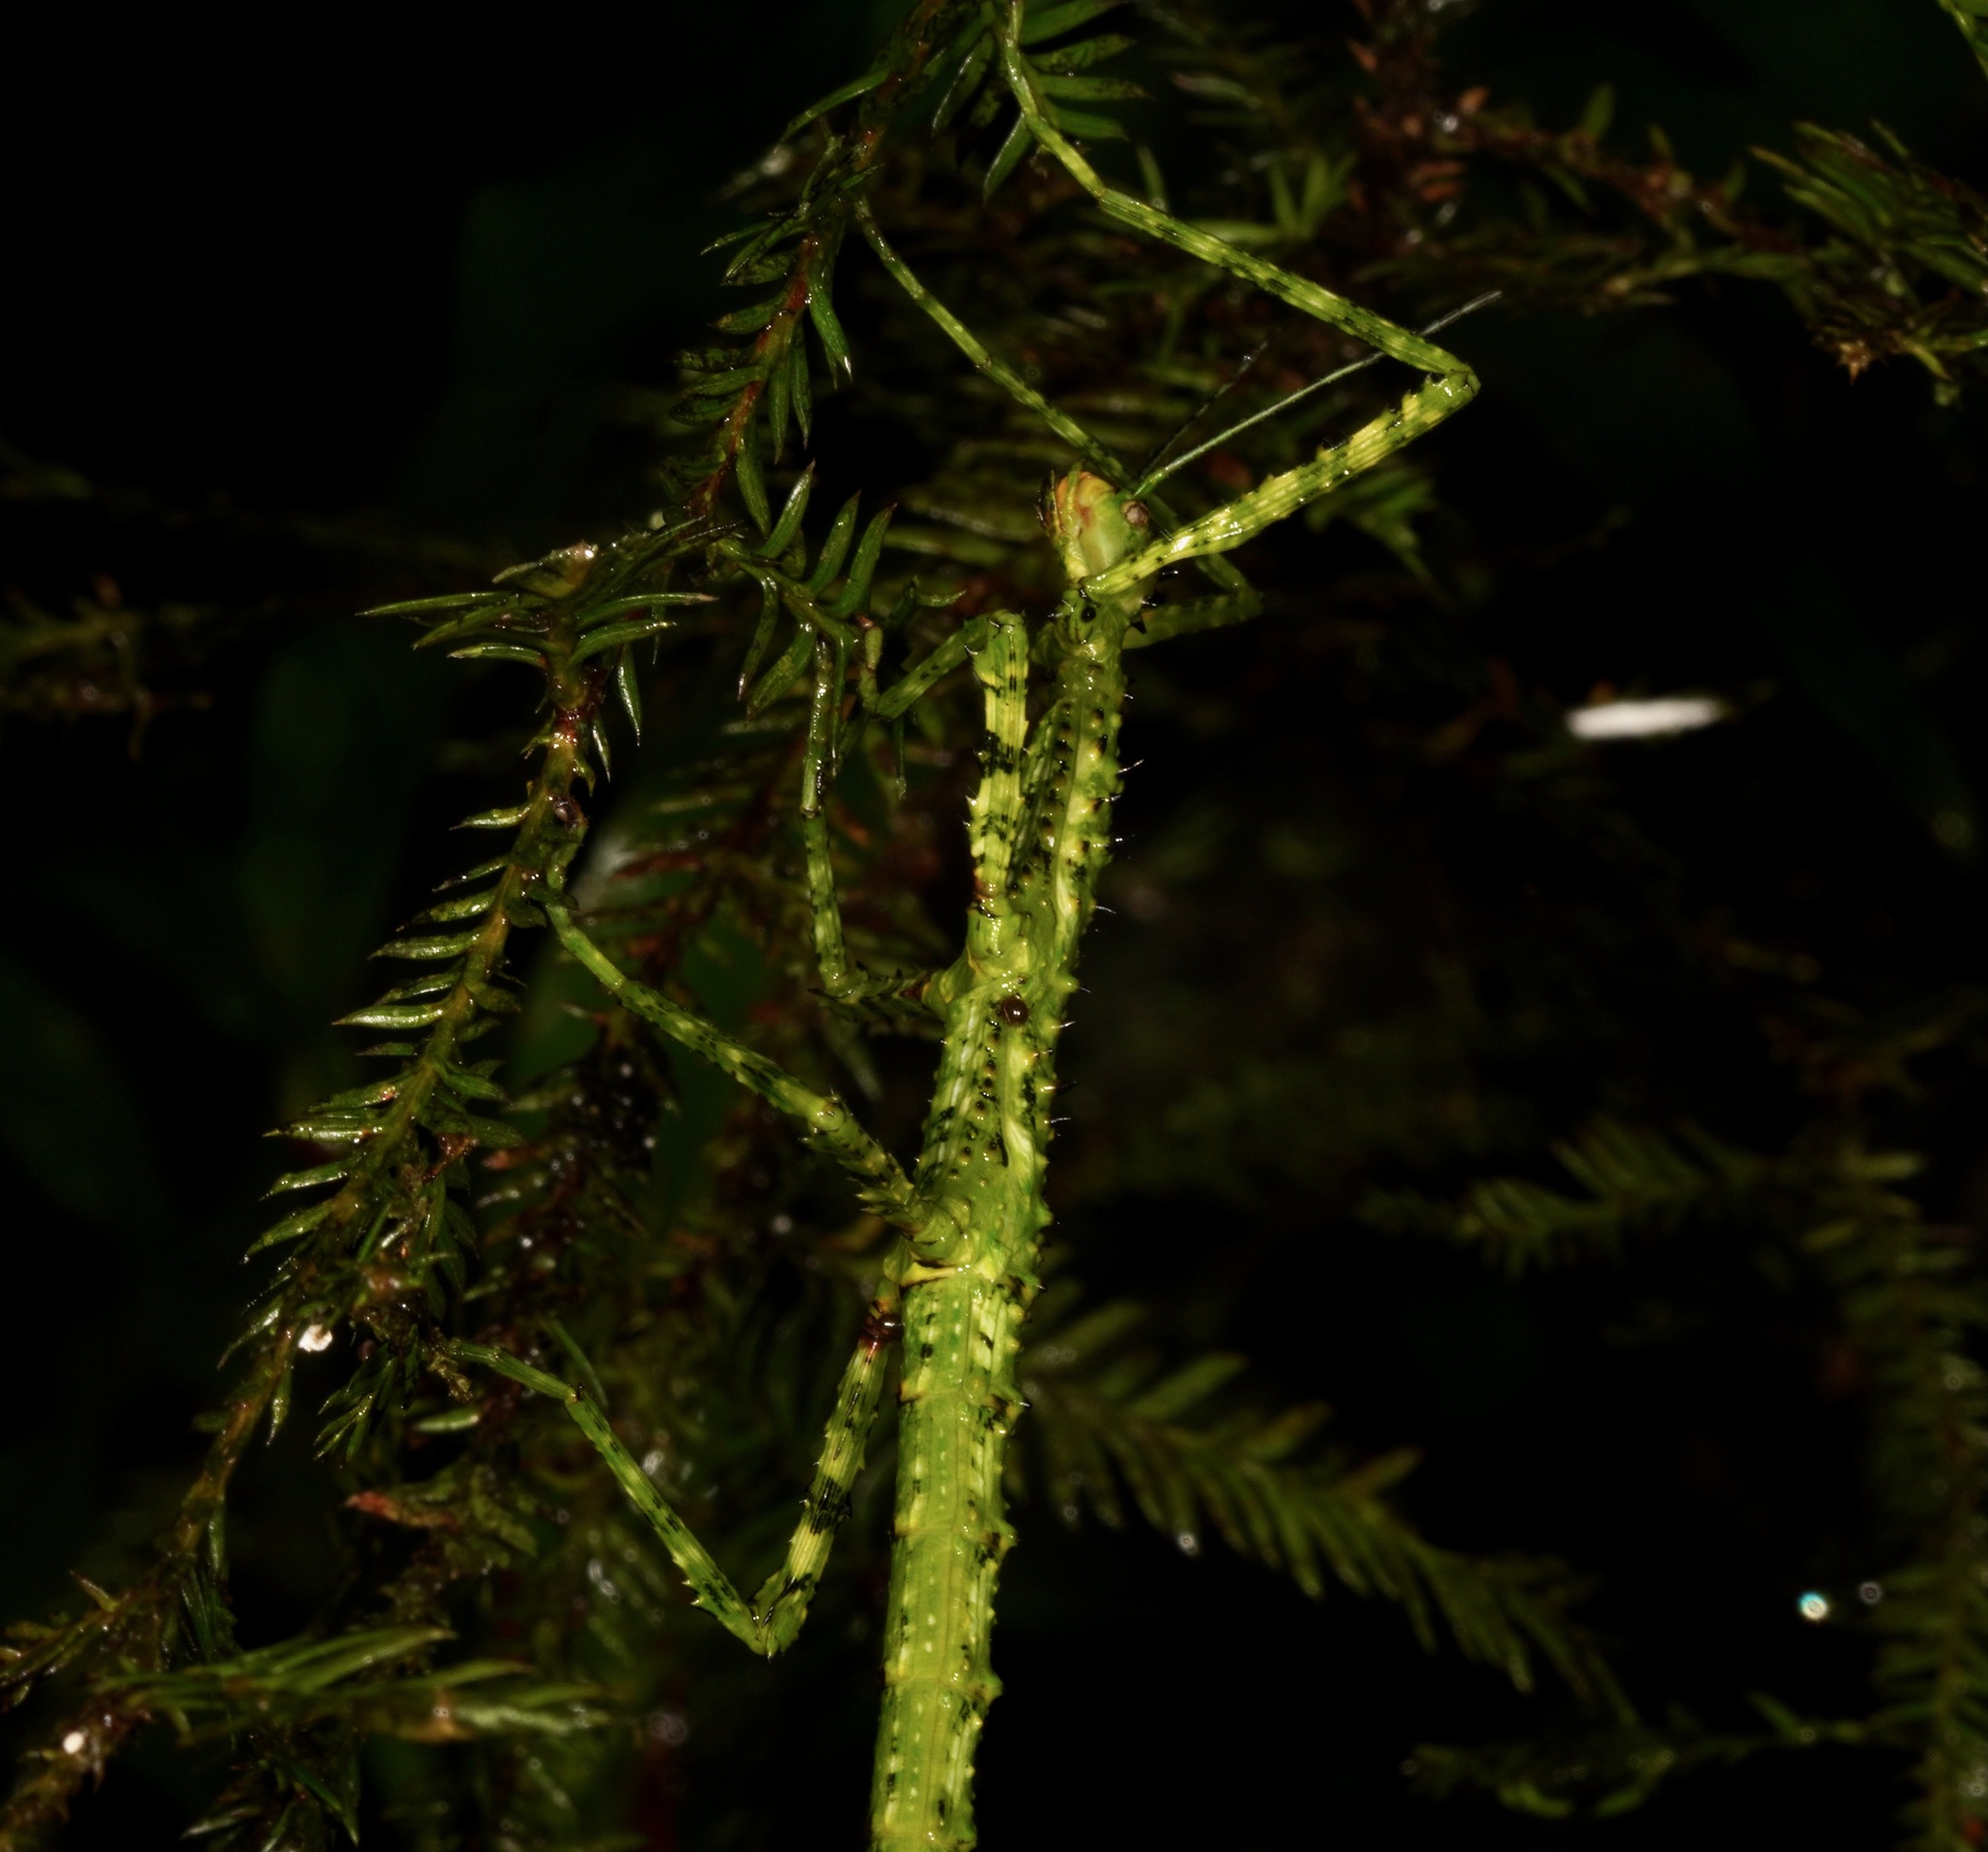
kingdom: Animalia
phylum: Arthropoda
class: Insecta
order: Phasmida
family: Phasmatidae
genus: Acanthoxyla
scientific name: Acanthoxyla prasina
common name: Black-spined stick insect
